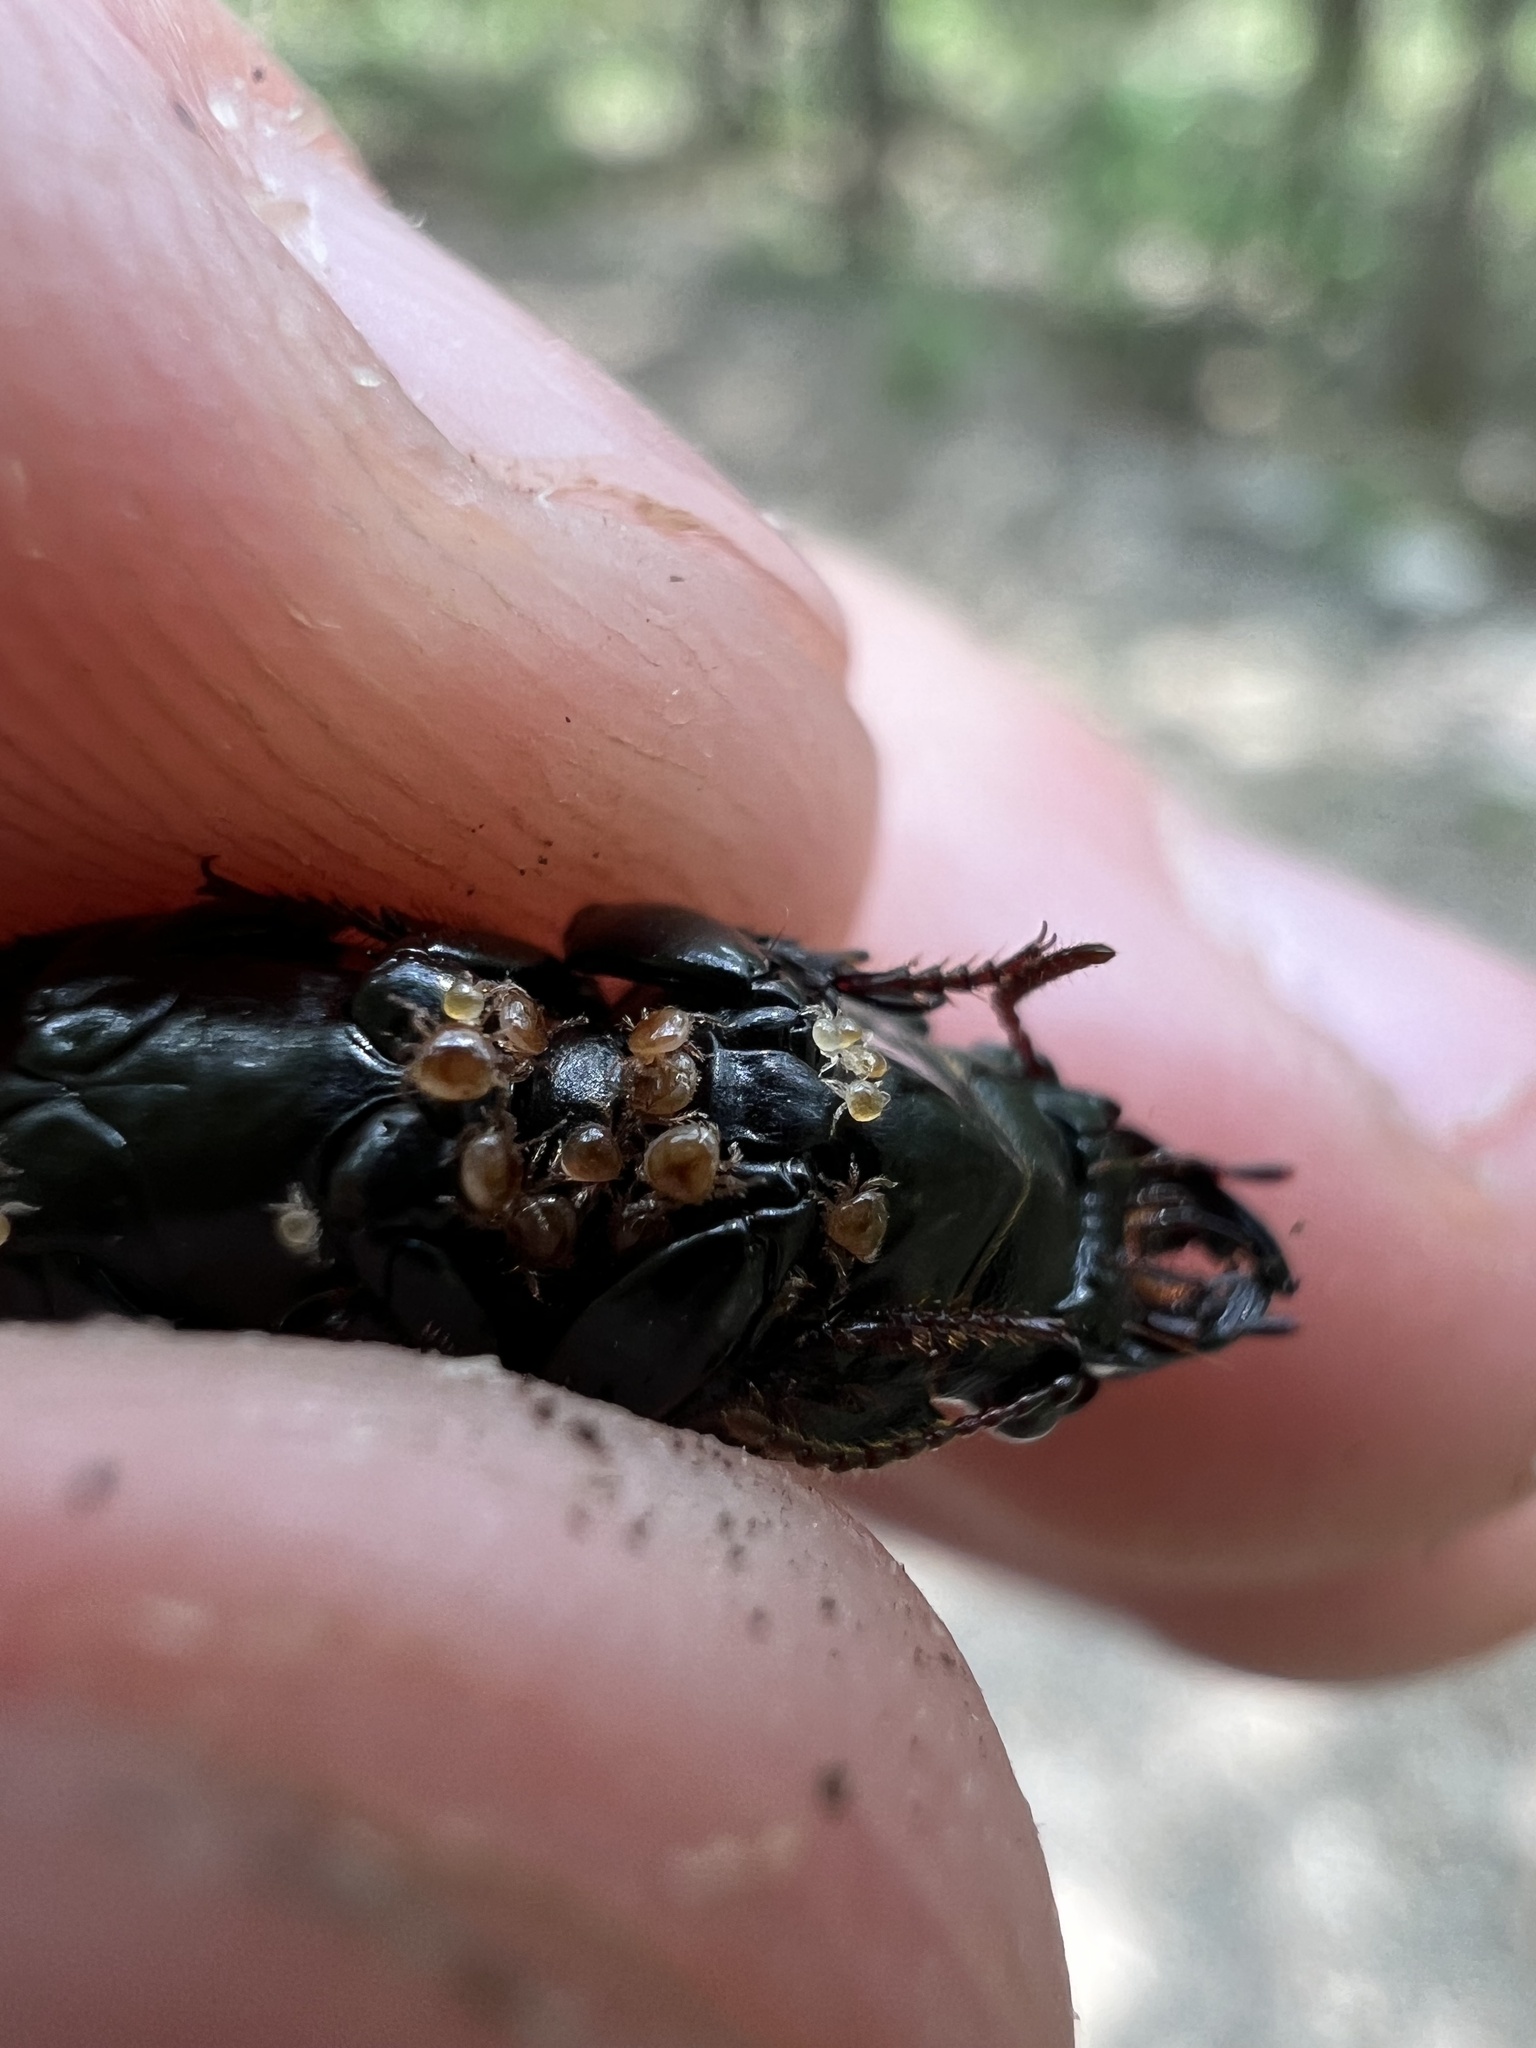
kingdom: Animalia
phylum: Arthropoda
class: Insecta
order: Coleoptera
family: Carabidae
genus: Scarites
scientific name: Scarites subterraneus
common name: Big-headed ground beetle
